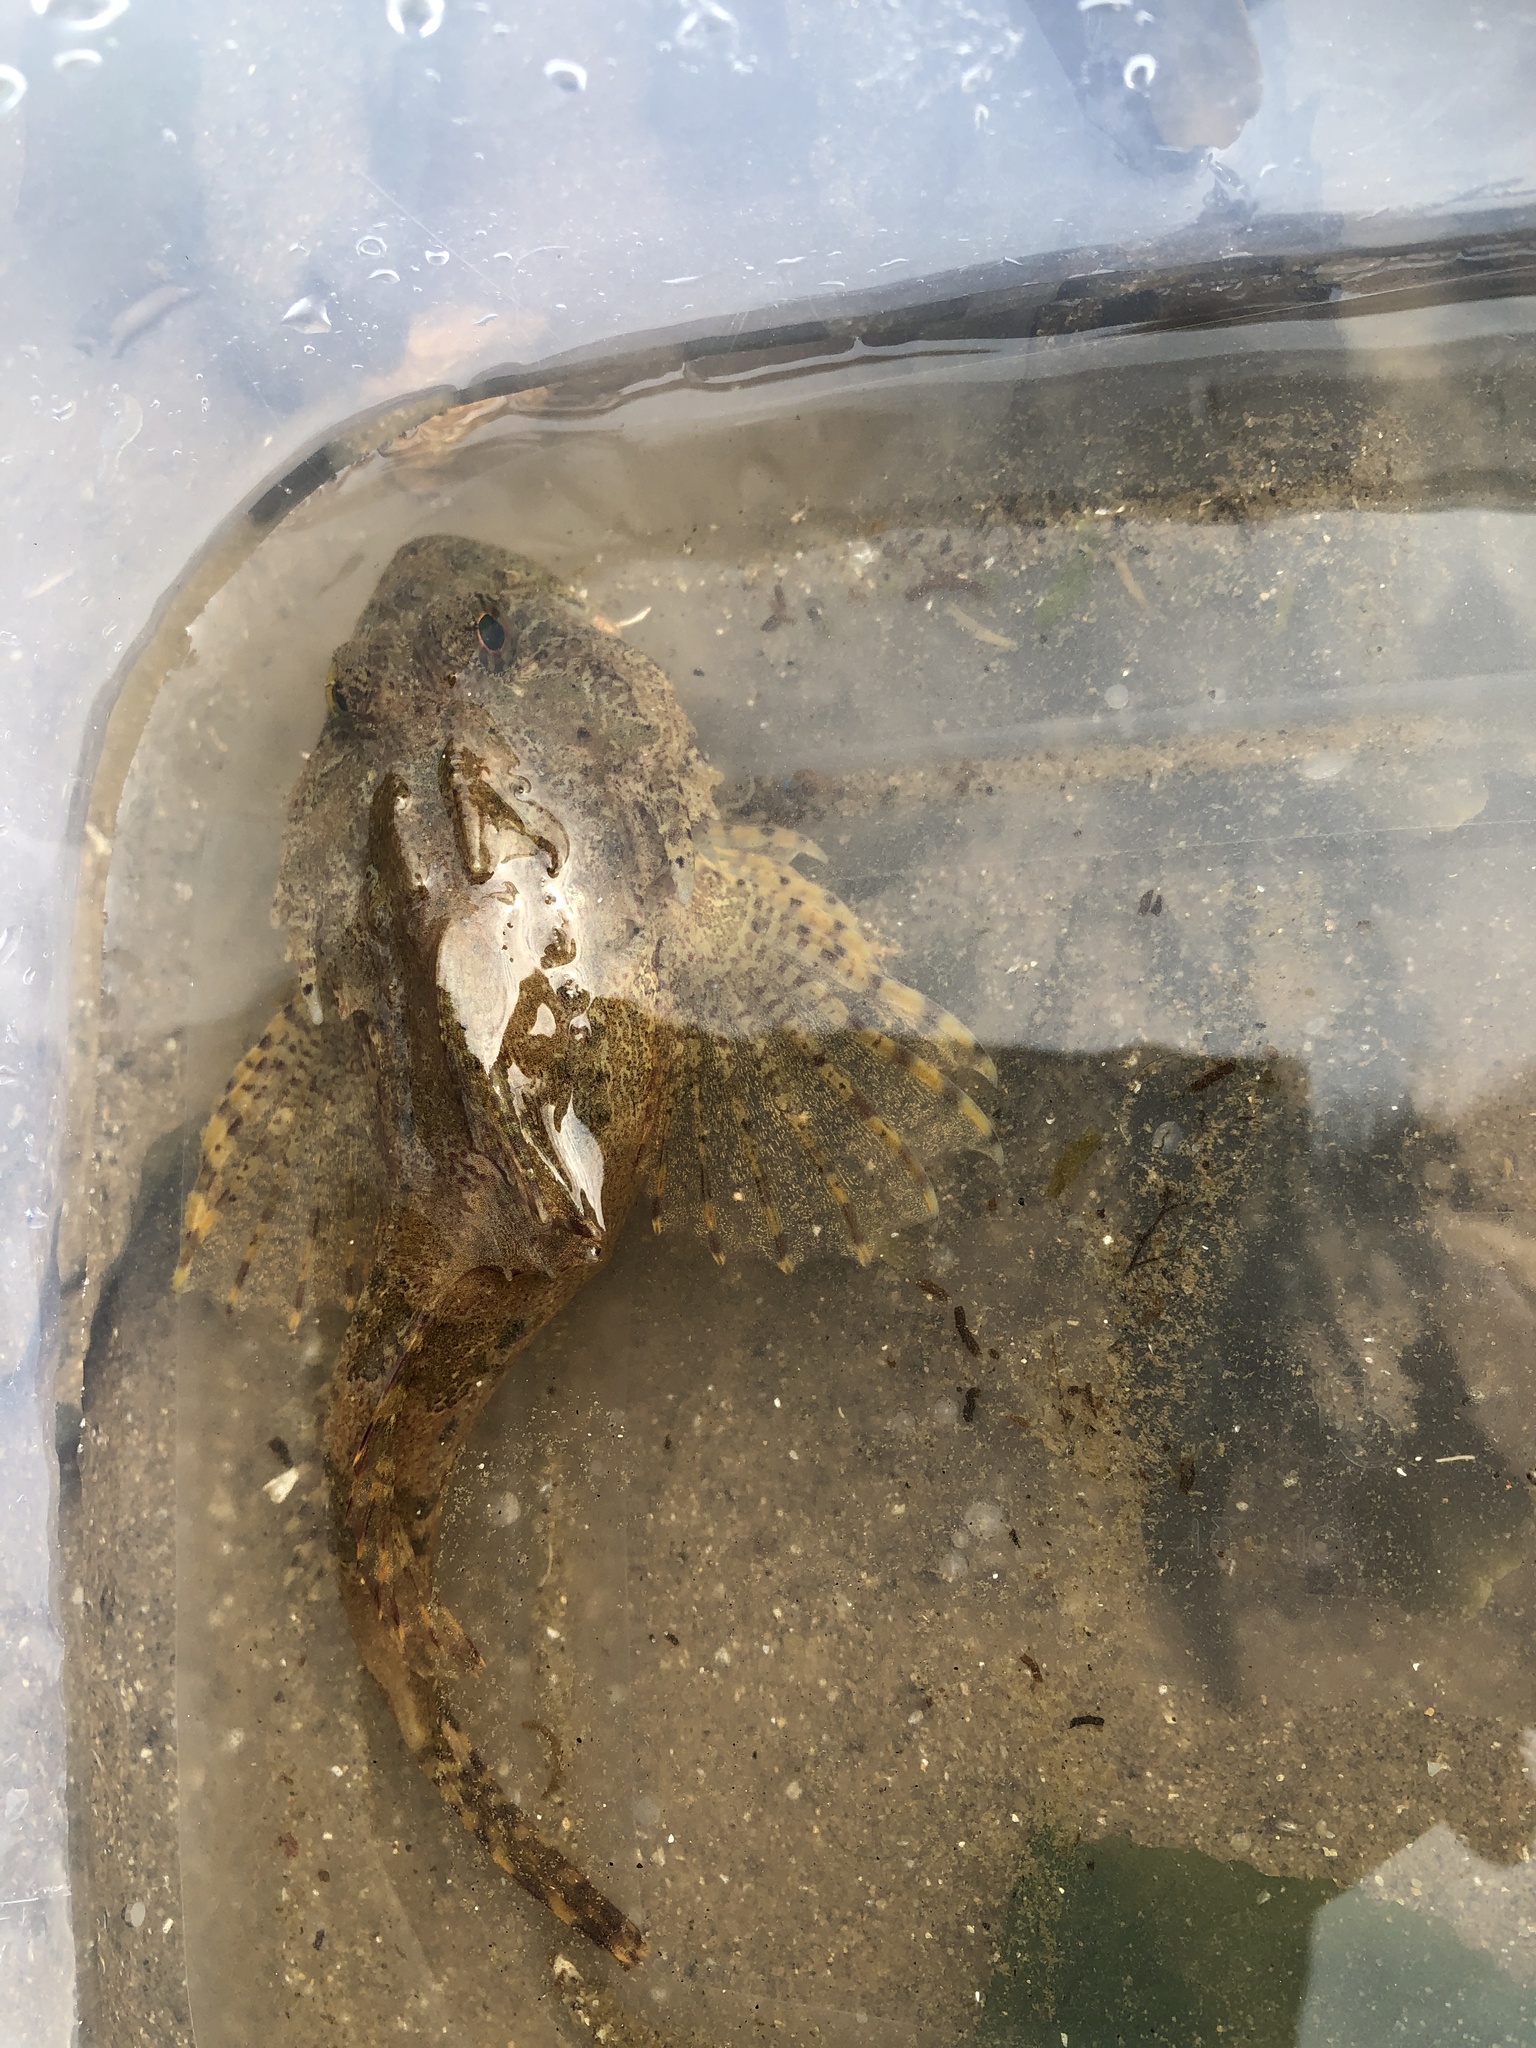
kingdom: Animalia
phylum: Chordata
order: Scorpaeniformes
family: Cottidae
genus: Taurulus
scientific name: Taurulus bubalis
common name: Sea scorpion
